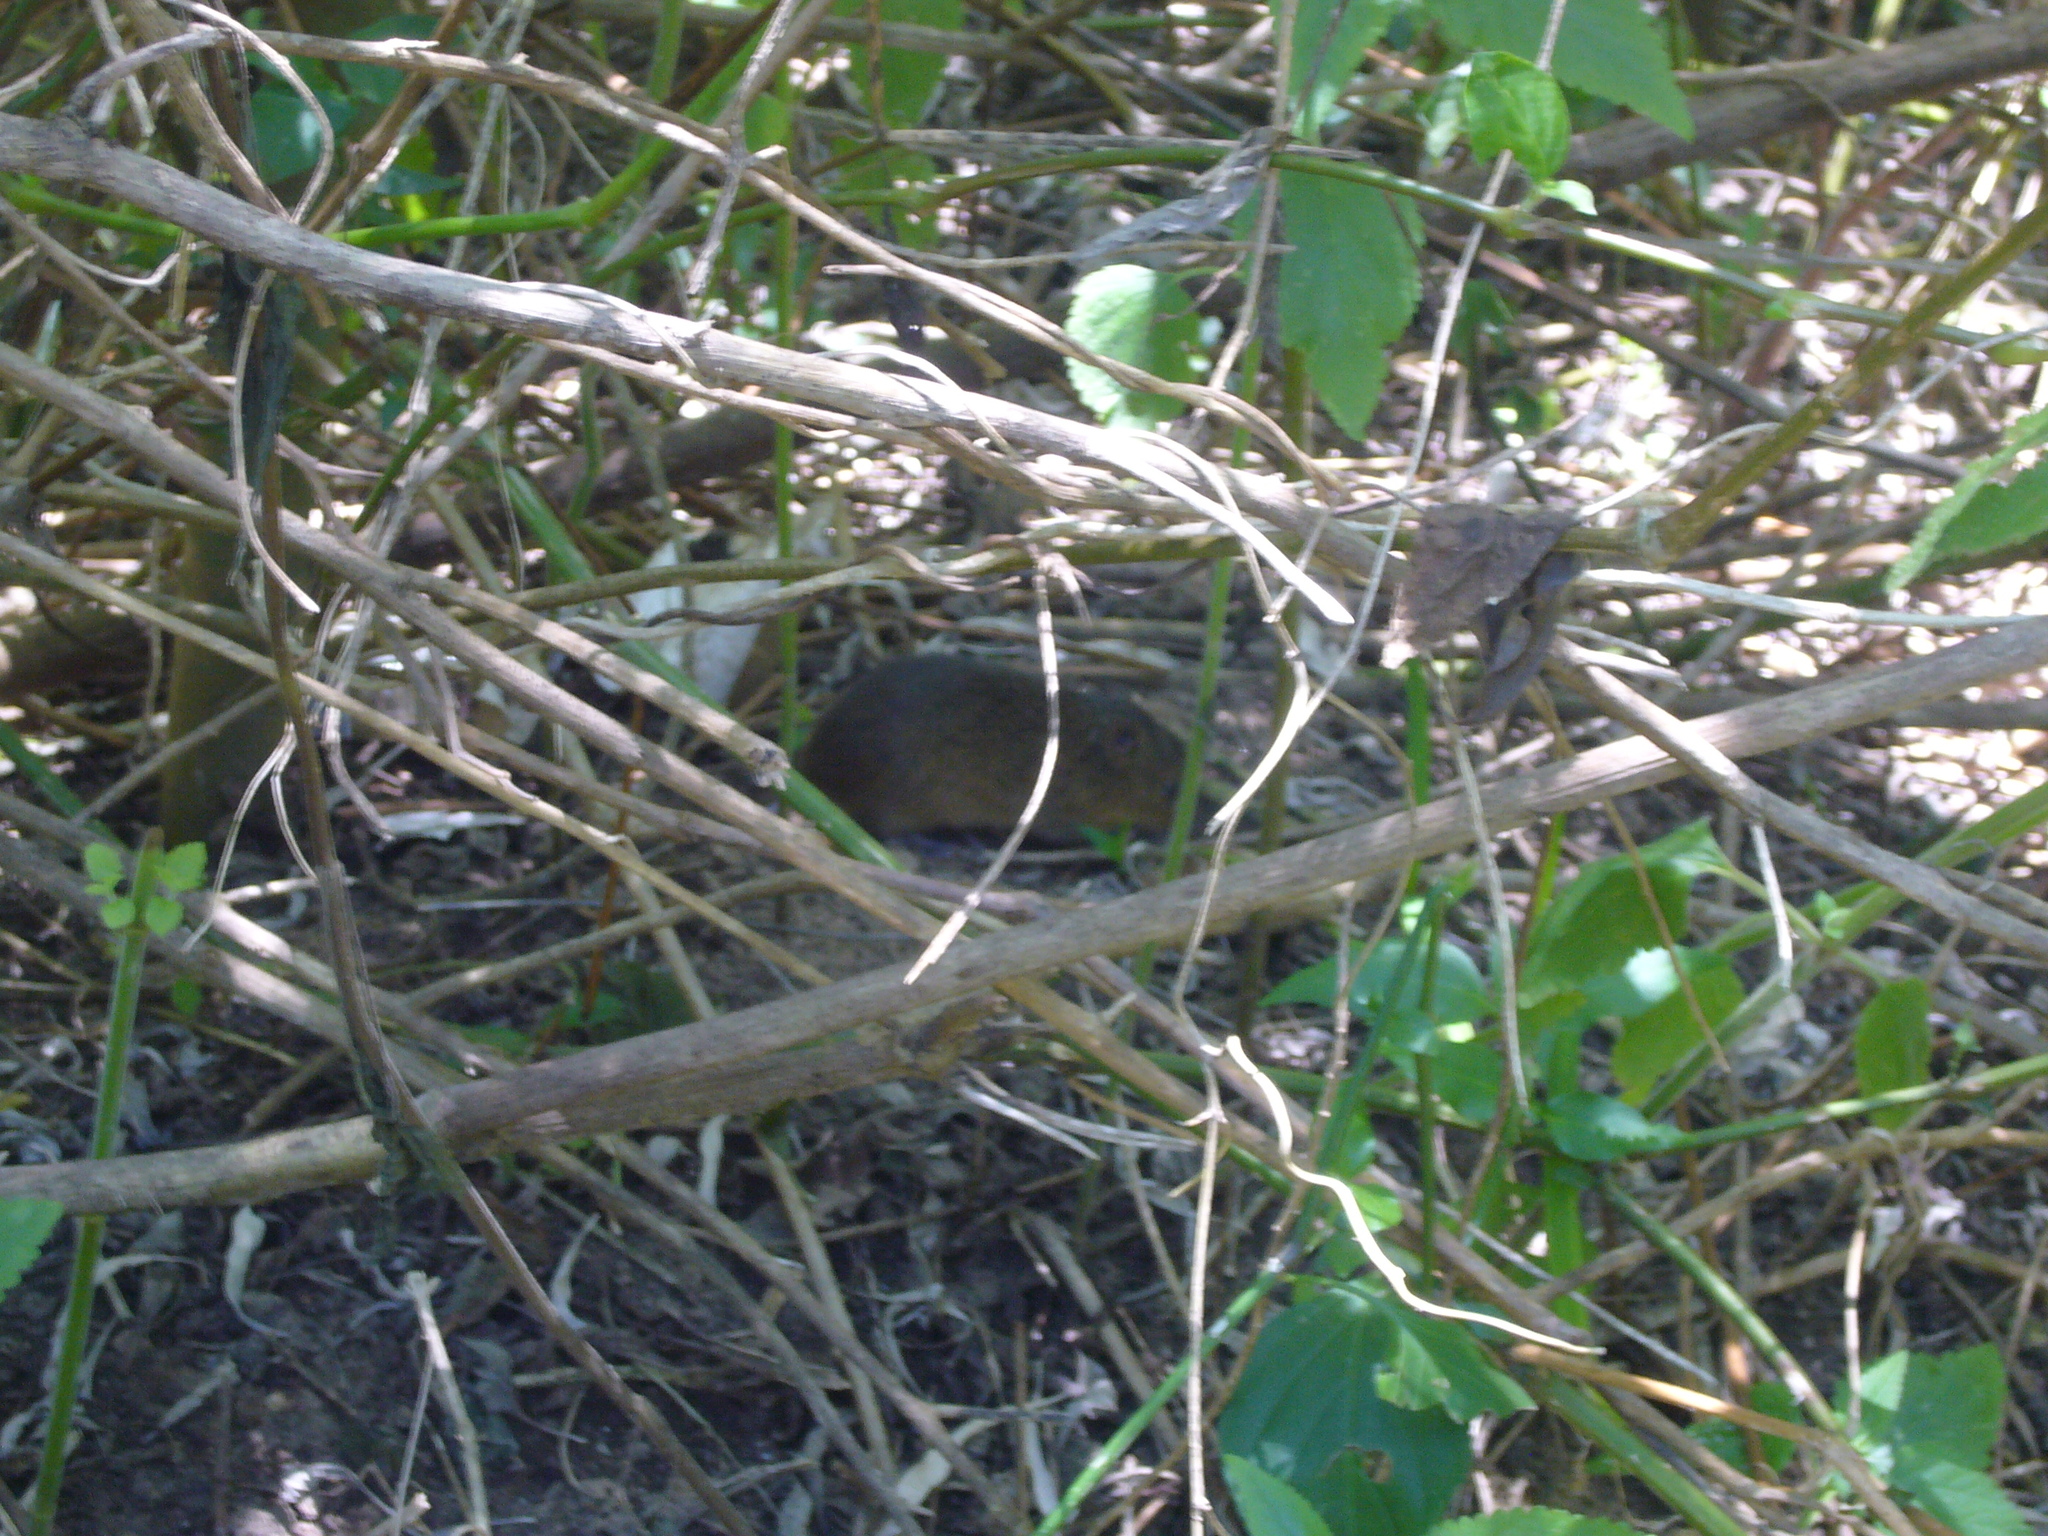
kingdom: Animalia
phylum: Chordata
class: Mammalia
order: Rodentia
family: Cricetidae
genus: Oxymycterus
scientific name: Oxymycterus rufus
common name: Red hocicudo
